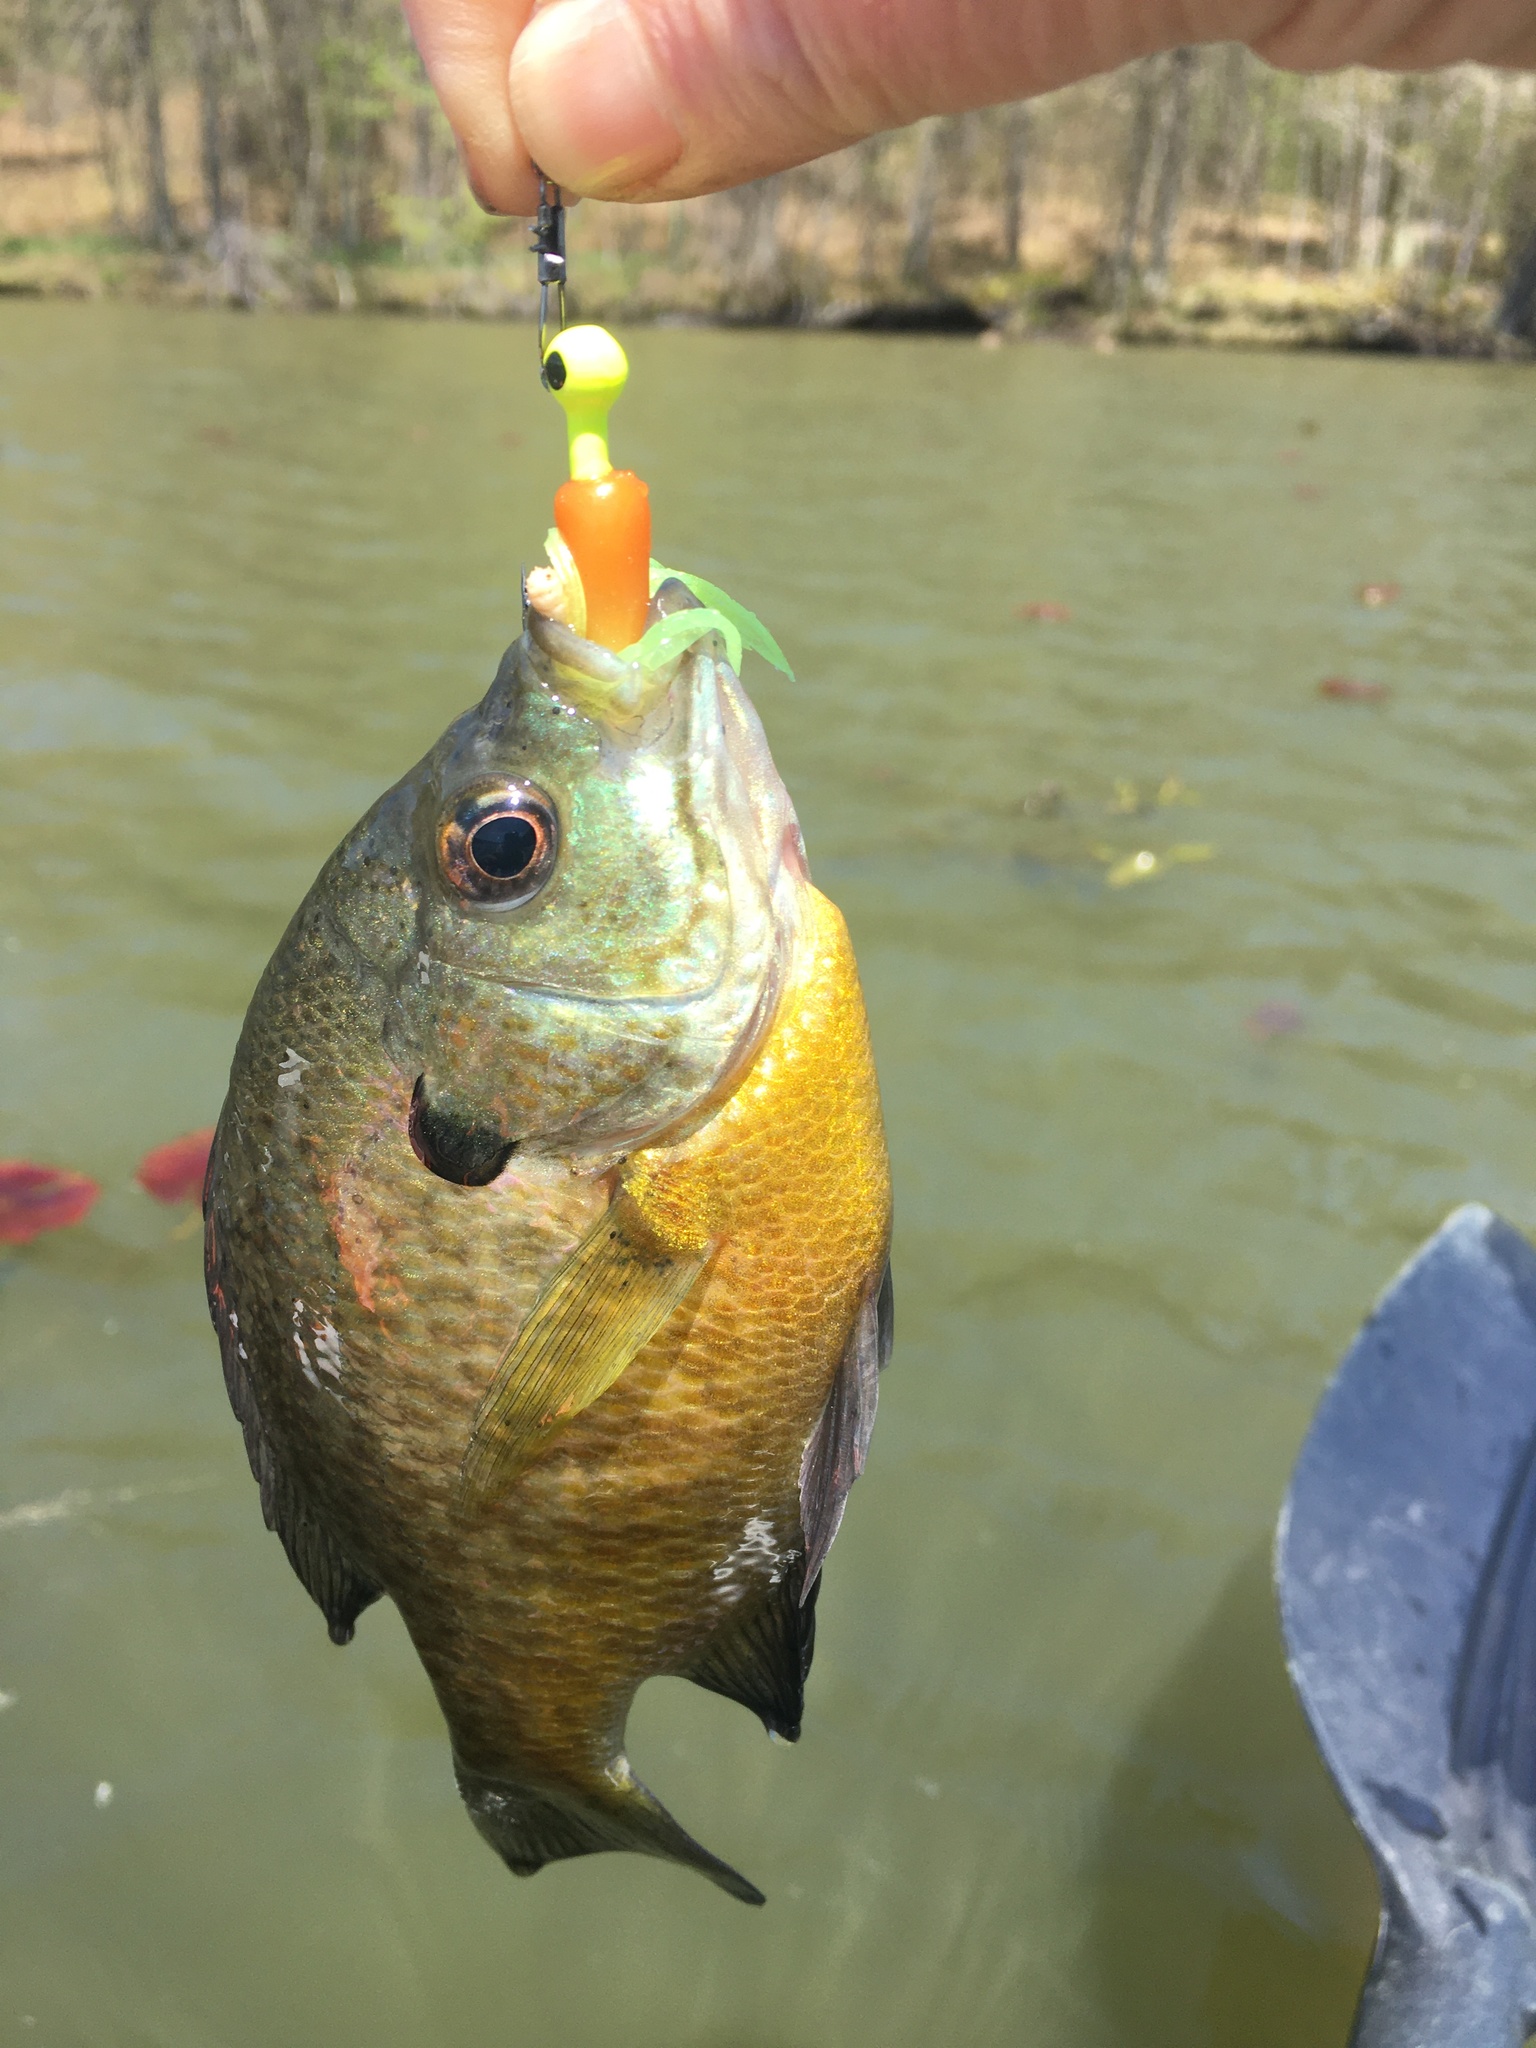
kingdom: Animalia
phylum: Chordata
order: Perciformes
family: Centrarchidae
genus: Lepomis
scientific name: Lepomis macrochirus
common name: Bluegill
